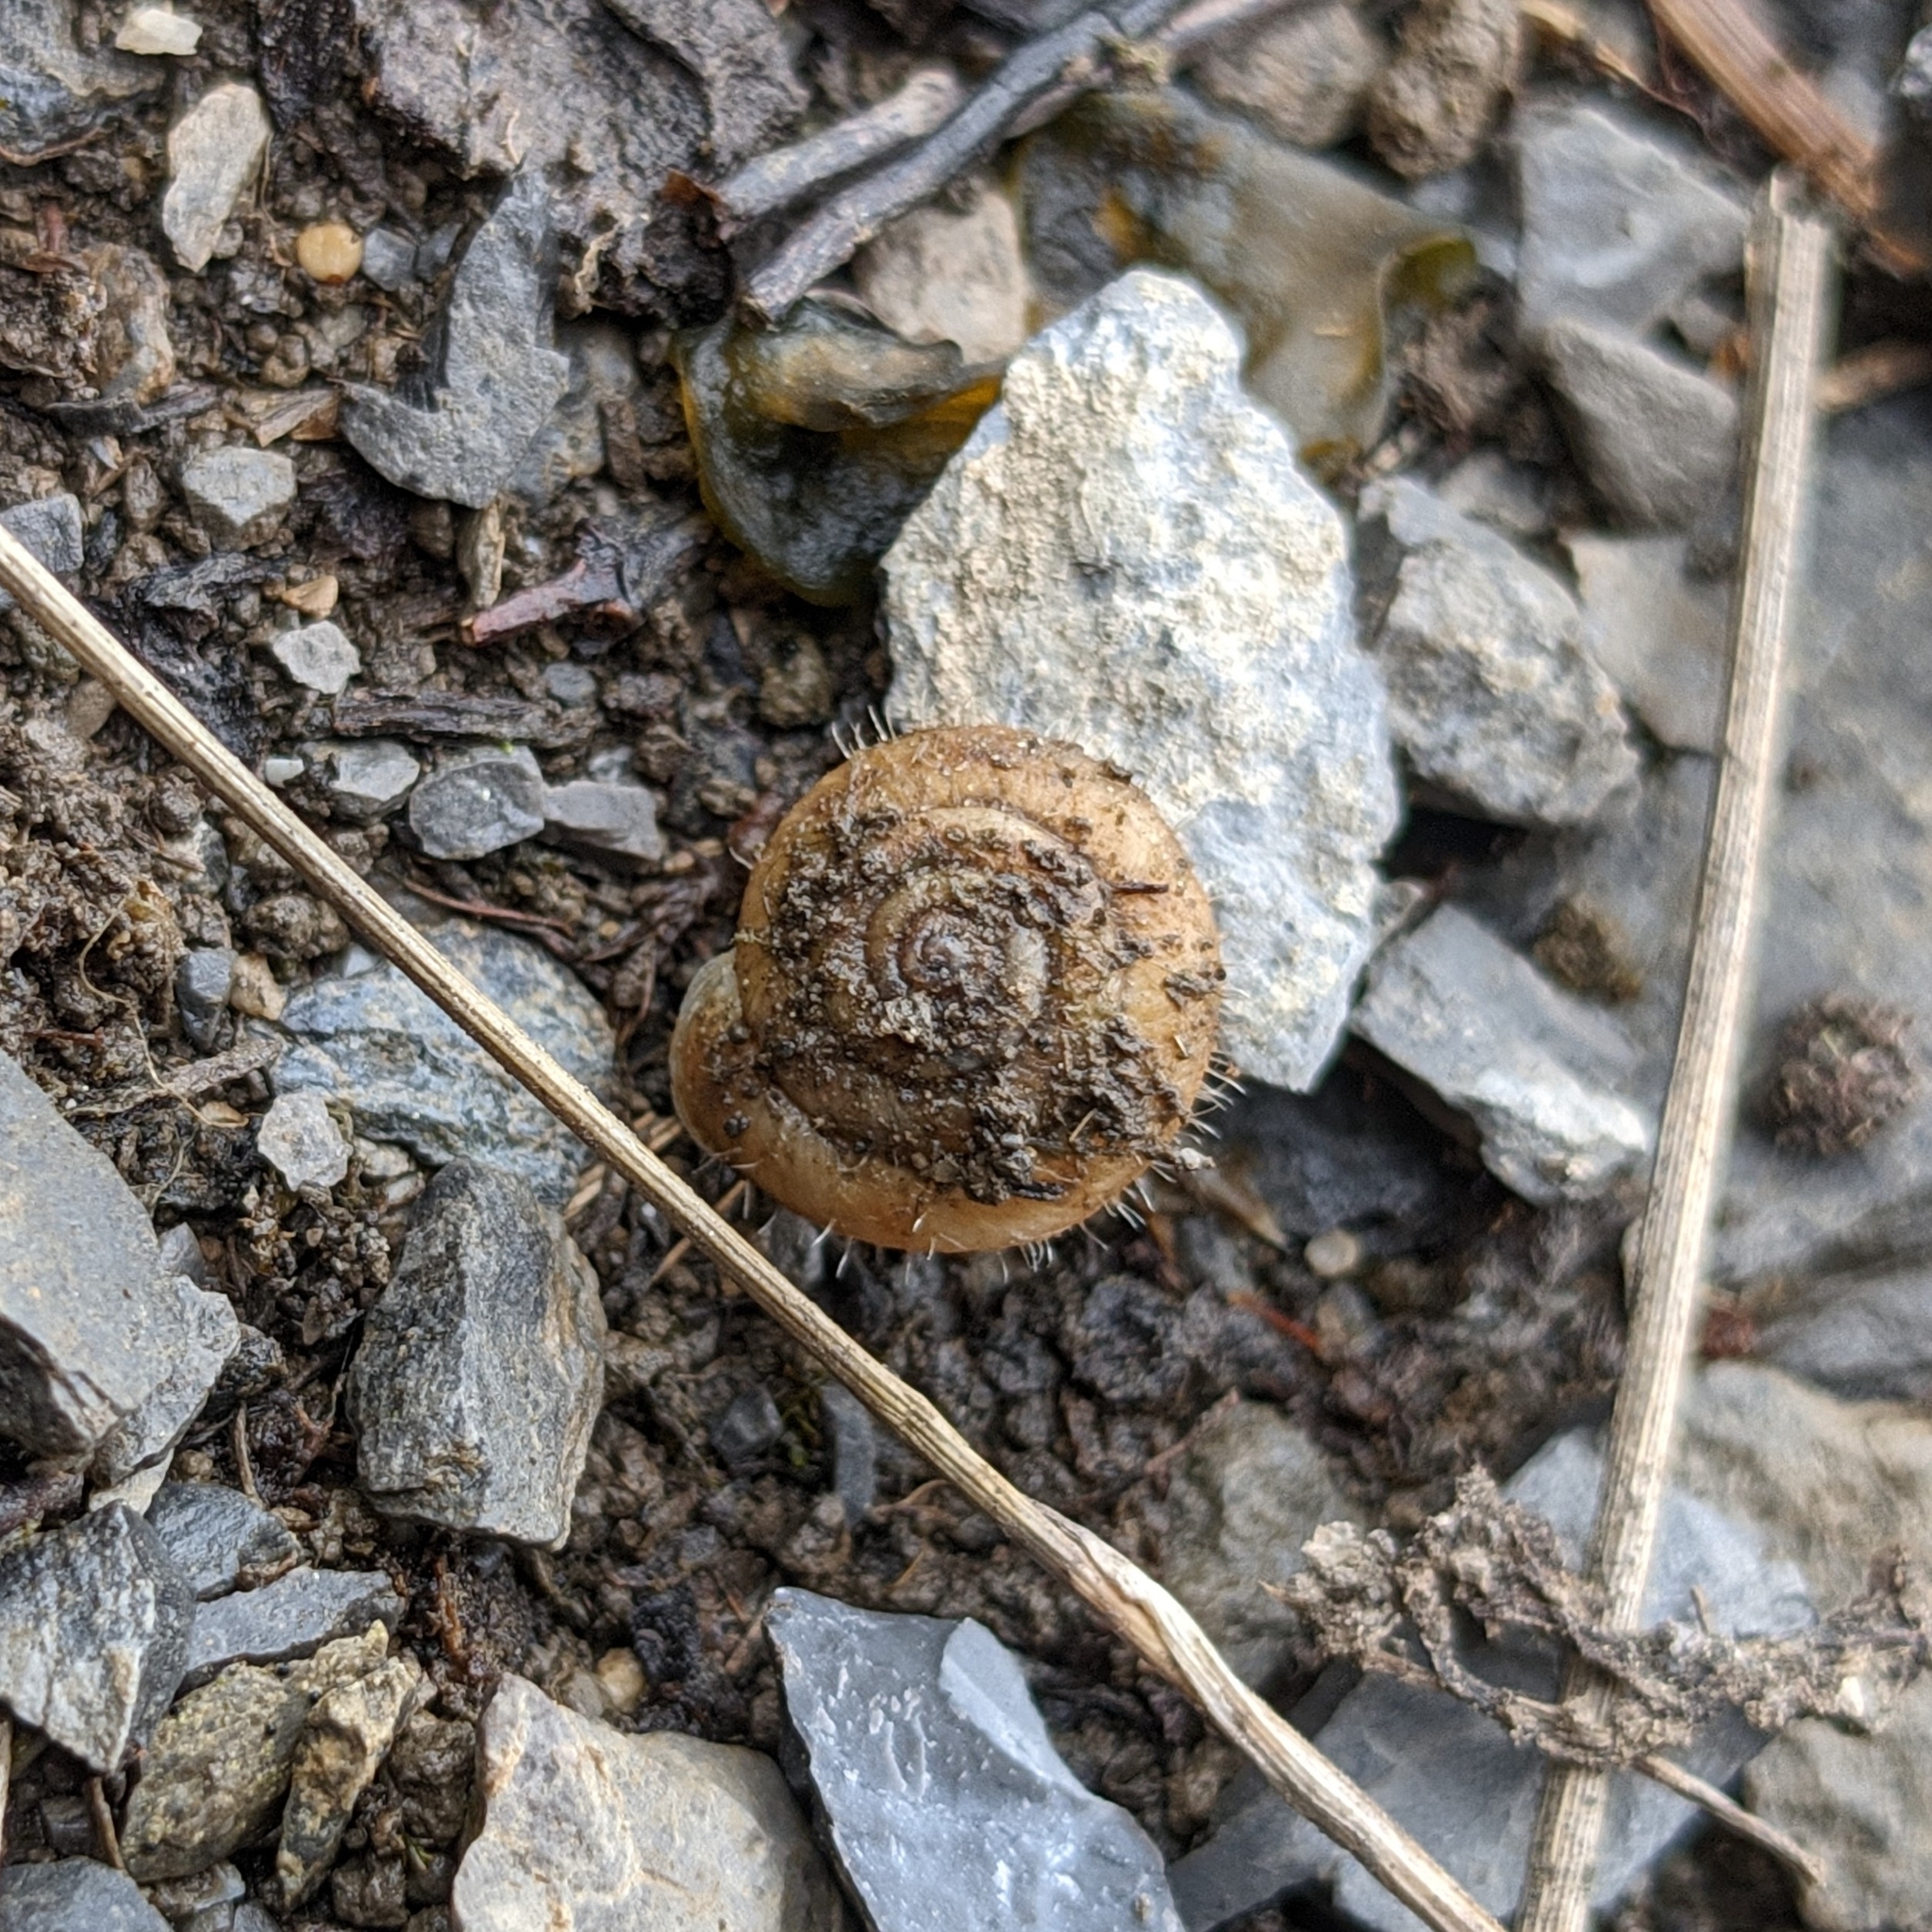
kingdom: Animalia
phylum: Mollusca
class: Gastropoda
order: Stylommatophora
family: Hygromiidae
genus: Trochulus
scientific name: Trochulus villosus
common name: Villous hairysnail
